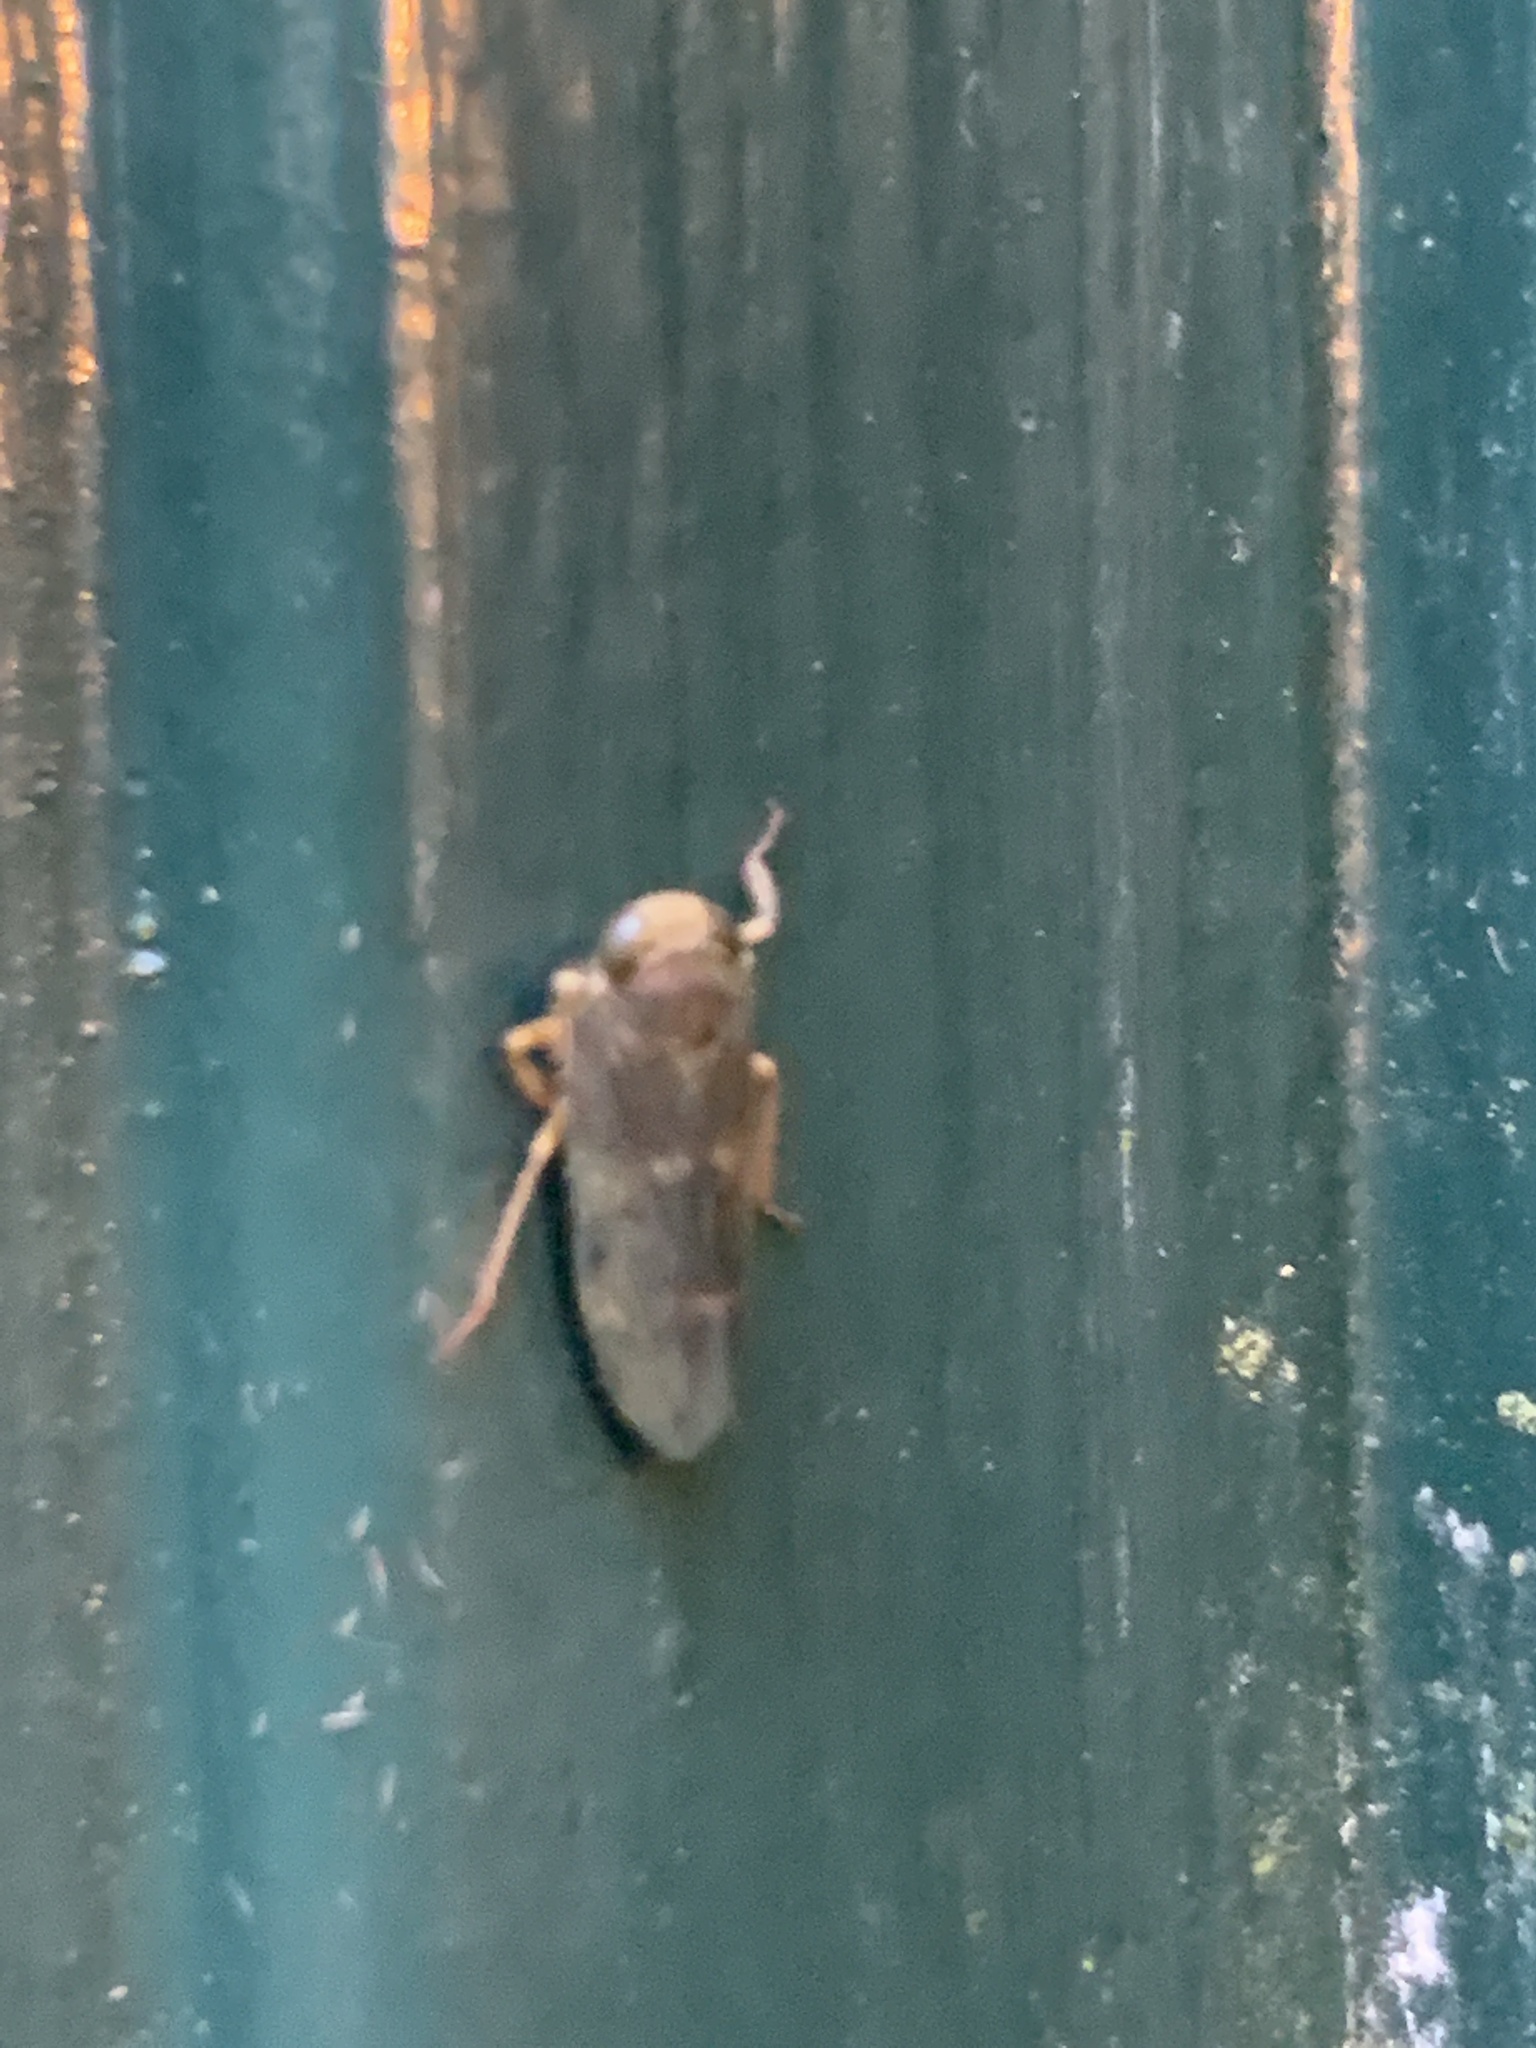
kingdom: Animalia
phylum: Arthropoda
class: Insecta
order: Hemiptera
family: Cicadellidae
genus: Jikradia
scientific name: Jikradia olitoria
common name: Coppery leafhopper
